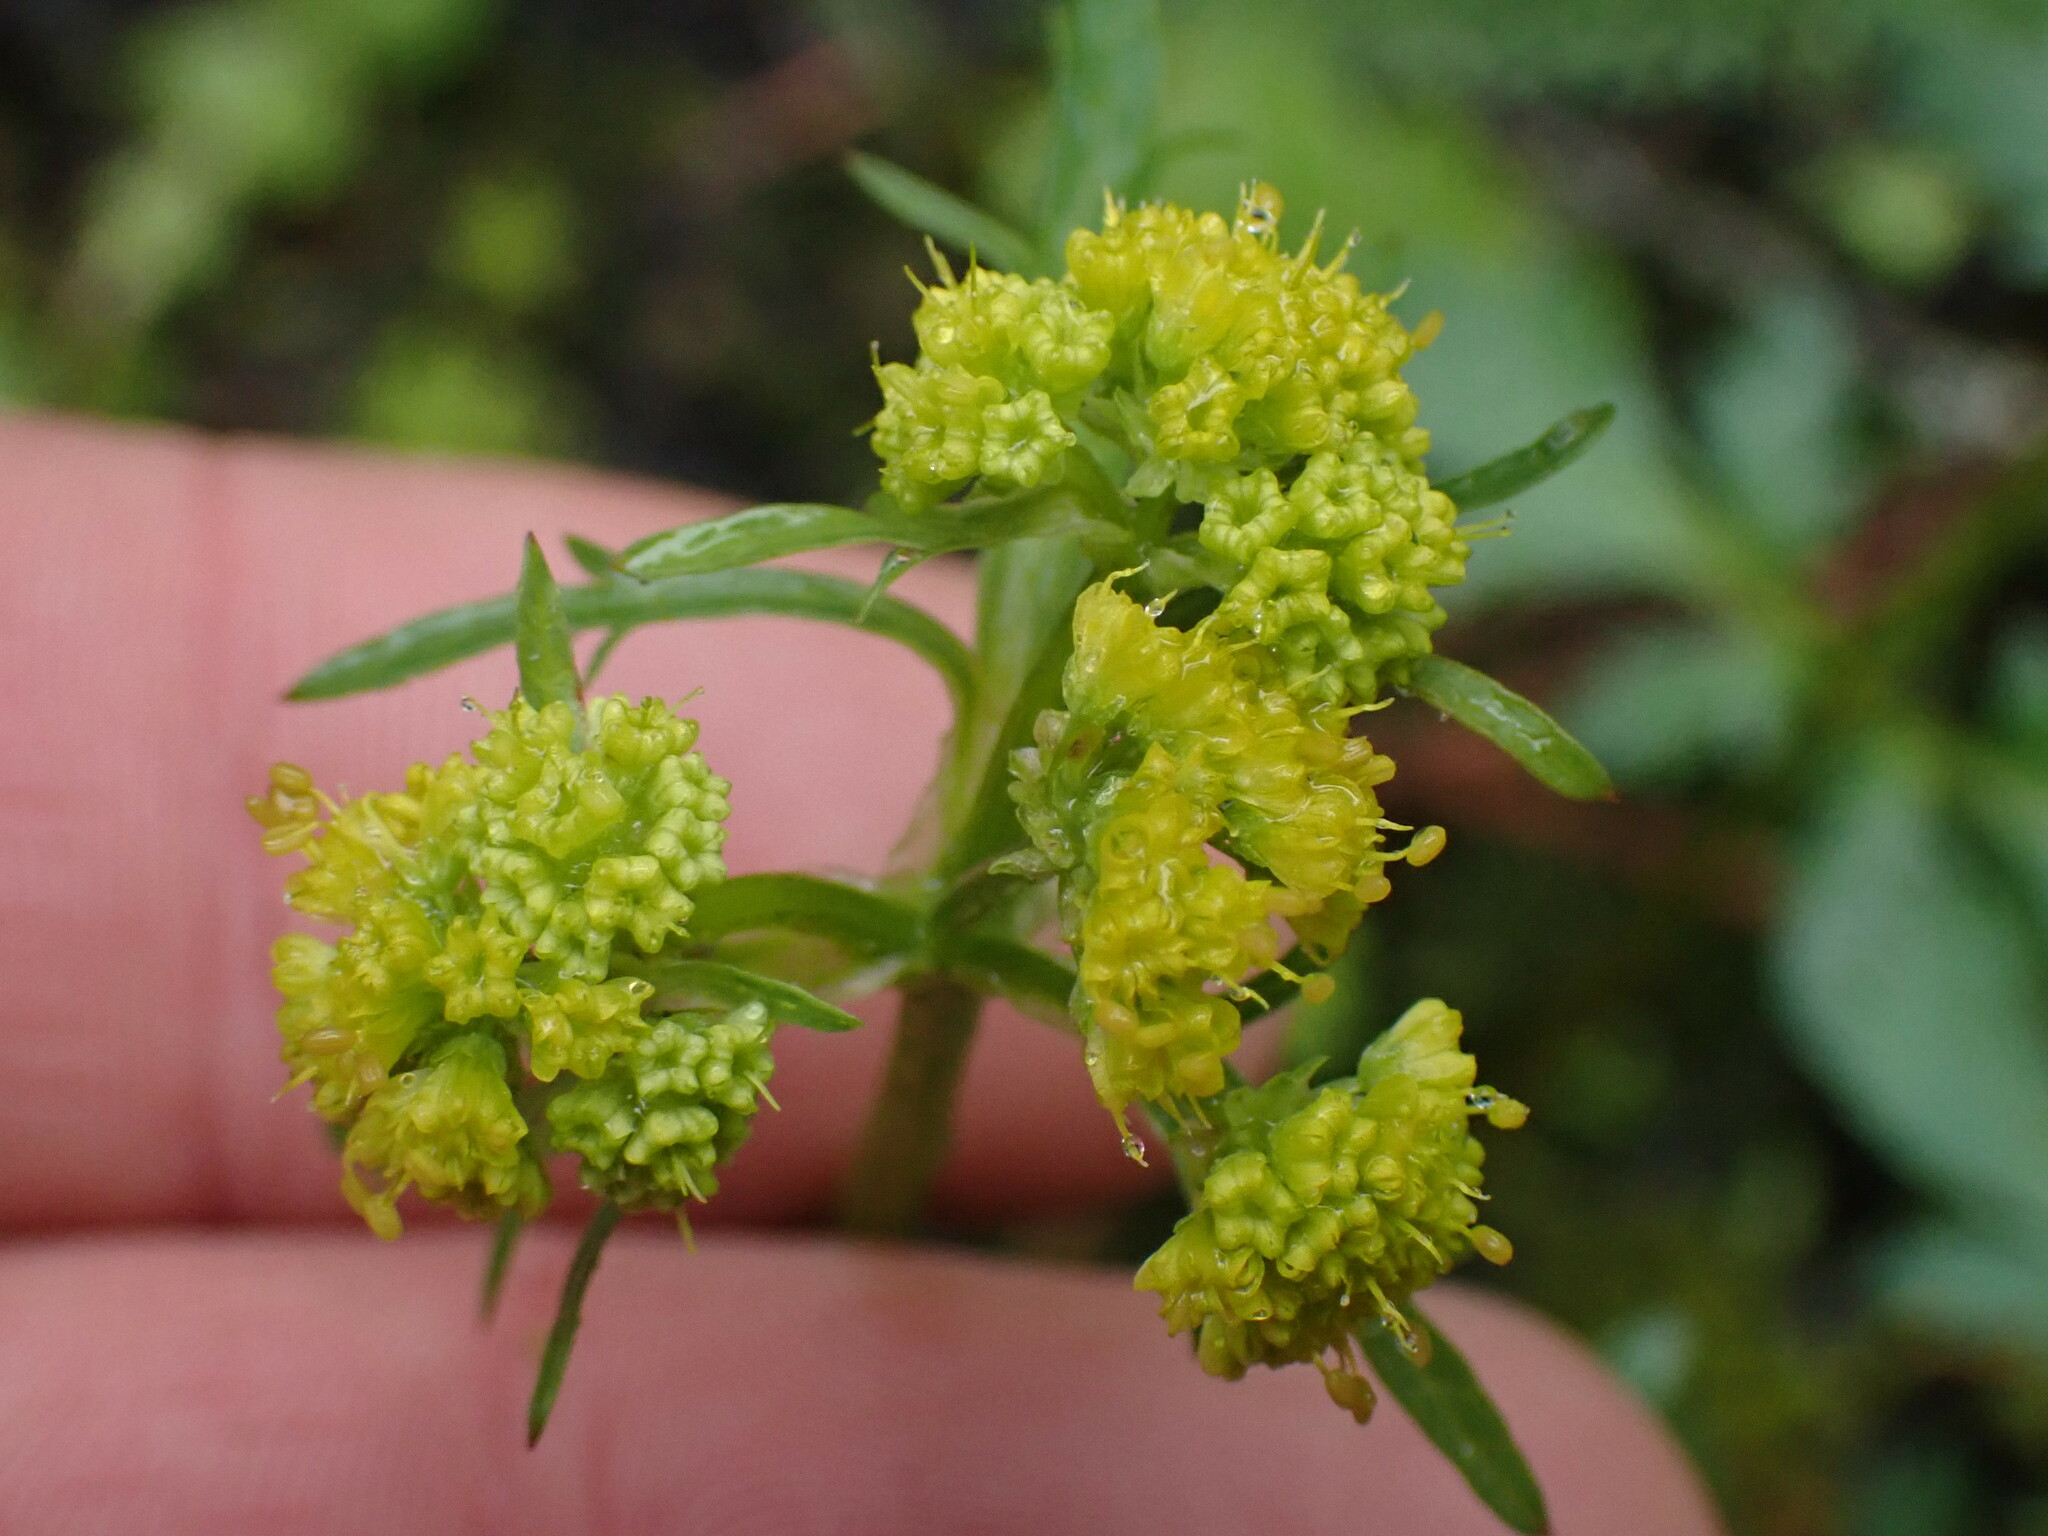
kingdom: Plantae
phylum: Tracheophyta
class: Magnoliopsida
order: Apiales
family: Apiaceae
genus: Sanicula
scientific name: Sanicula graveolens
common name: Sierra sanicle
